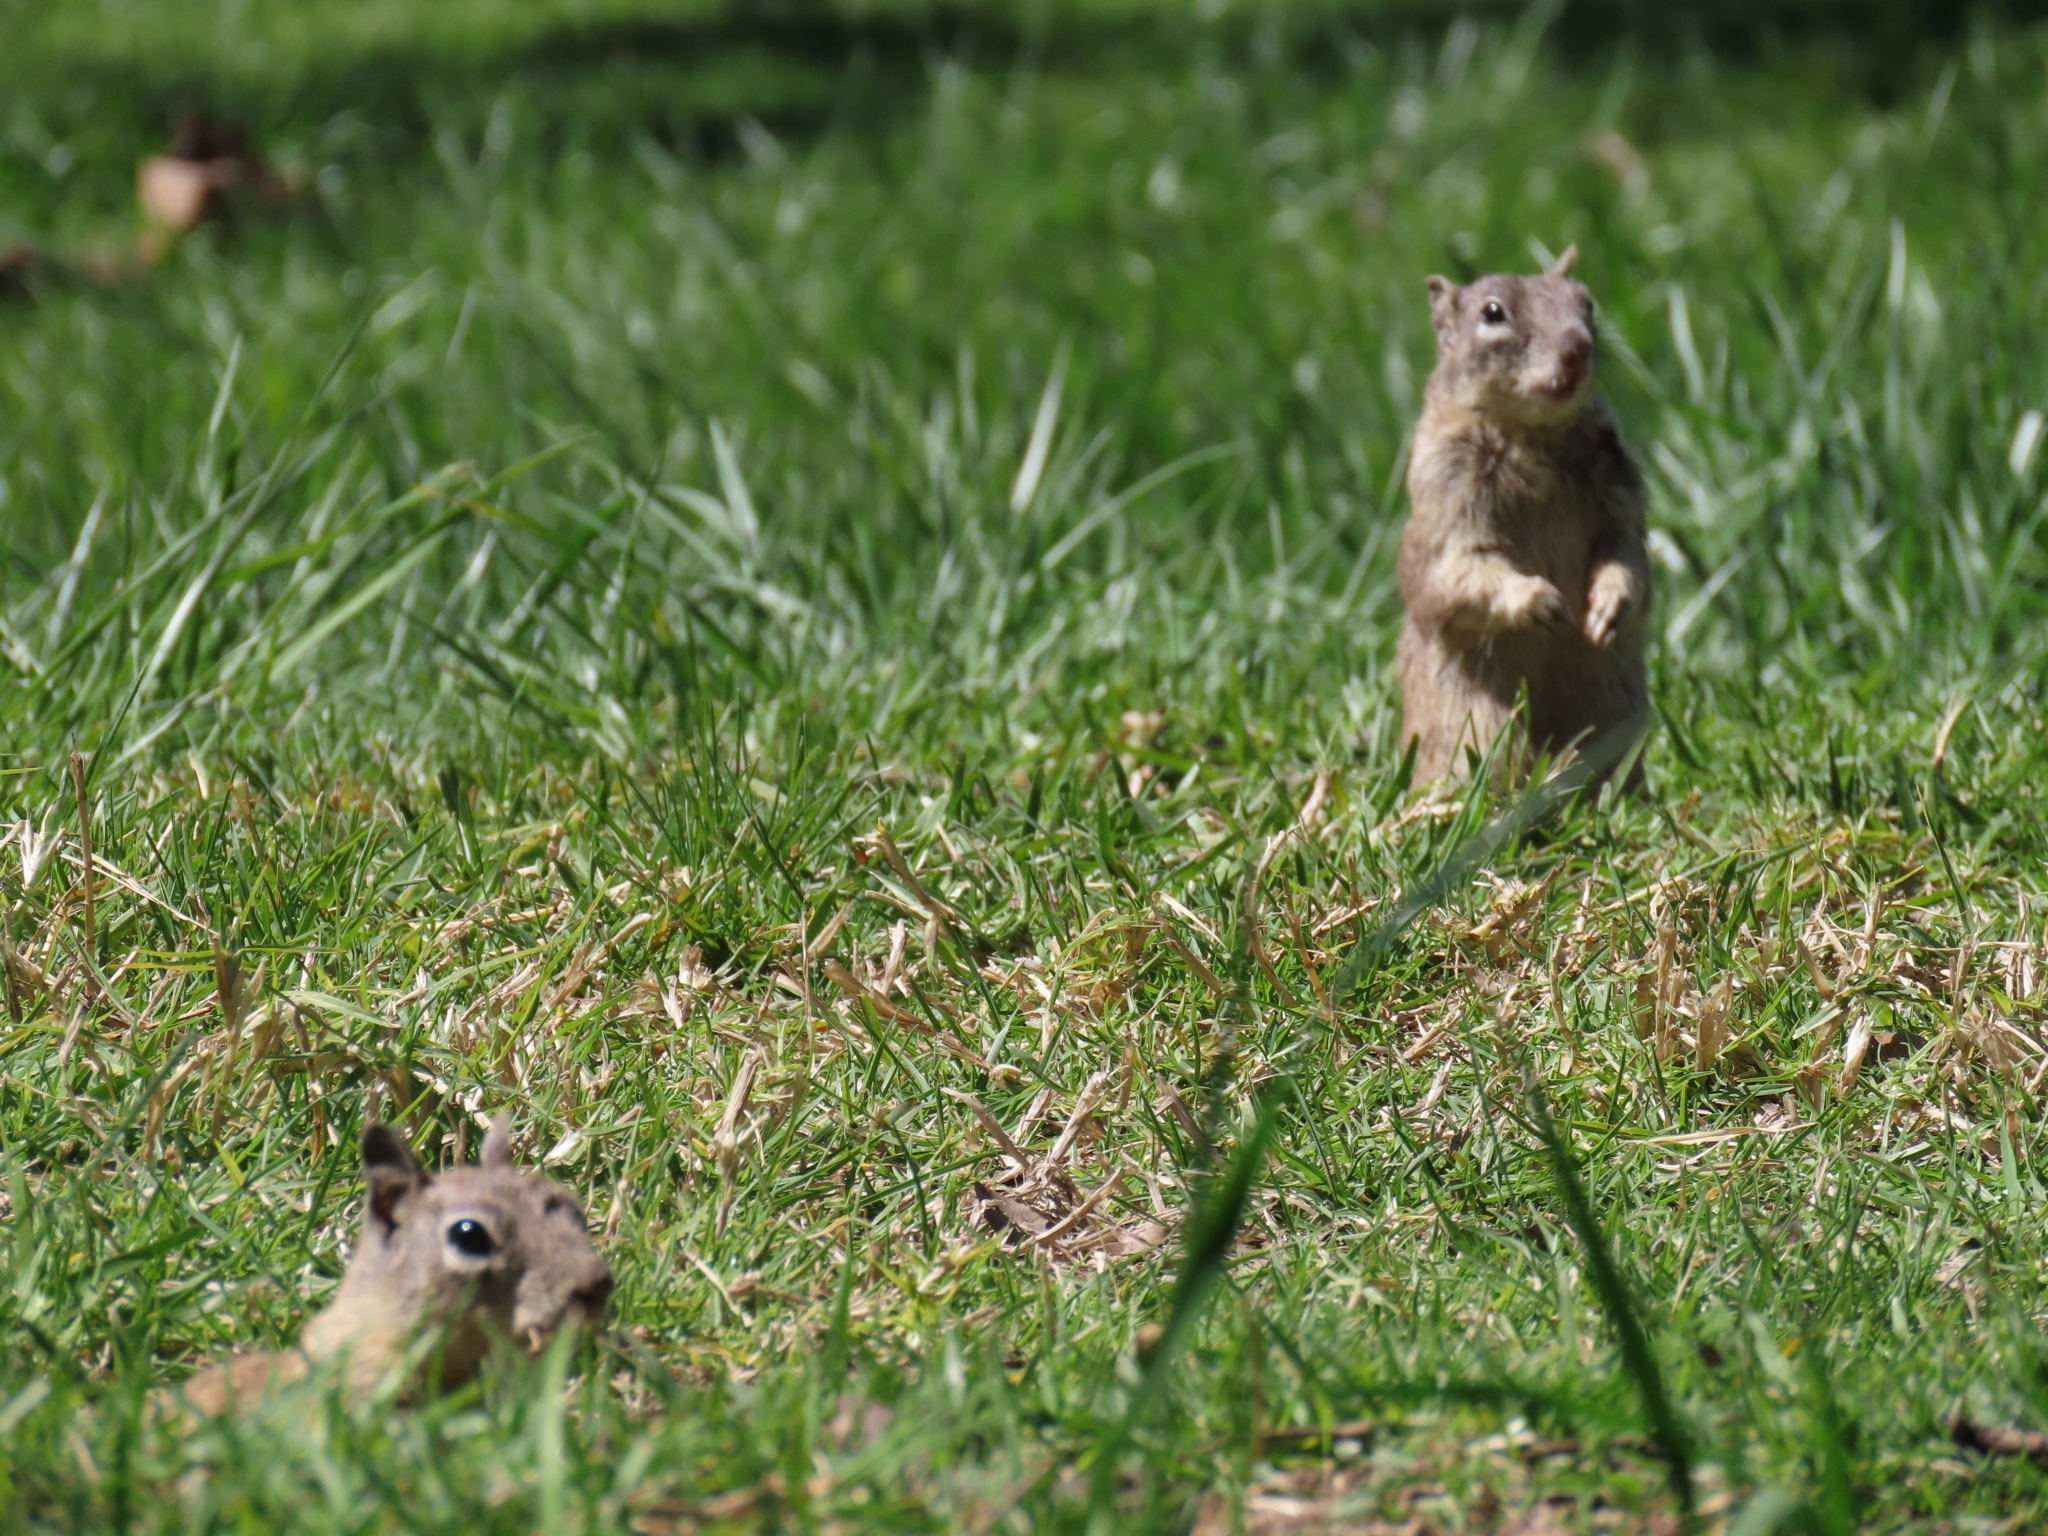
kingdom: Animalia
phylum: Chordata
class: Mammalia
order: Rodentia
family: Sciuridae
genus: Otospermophilus
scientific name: Otospermophilus beecheyi
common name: California ground squirrel
